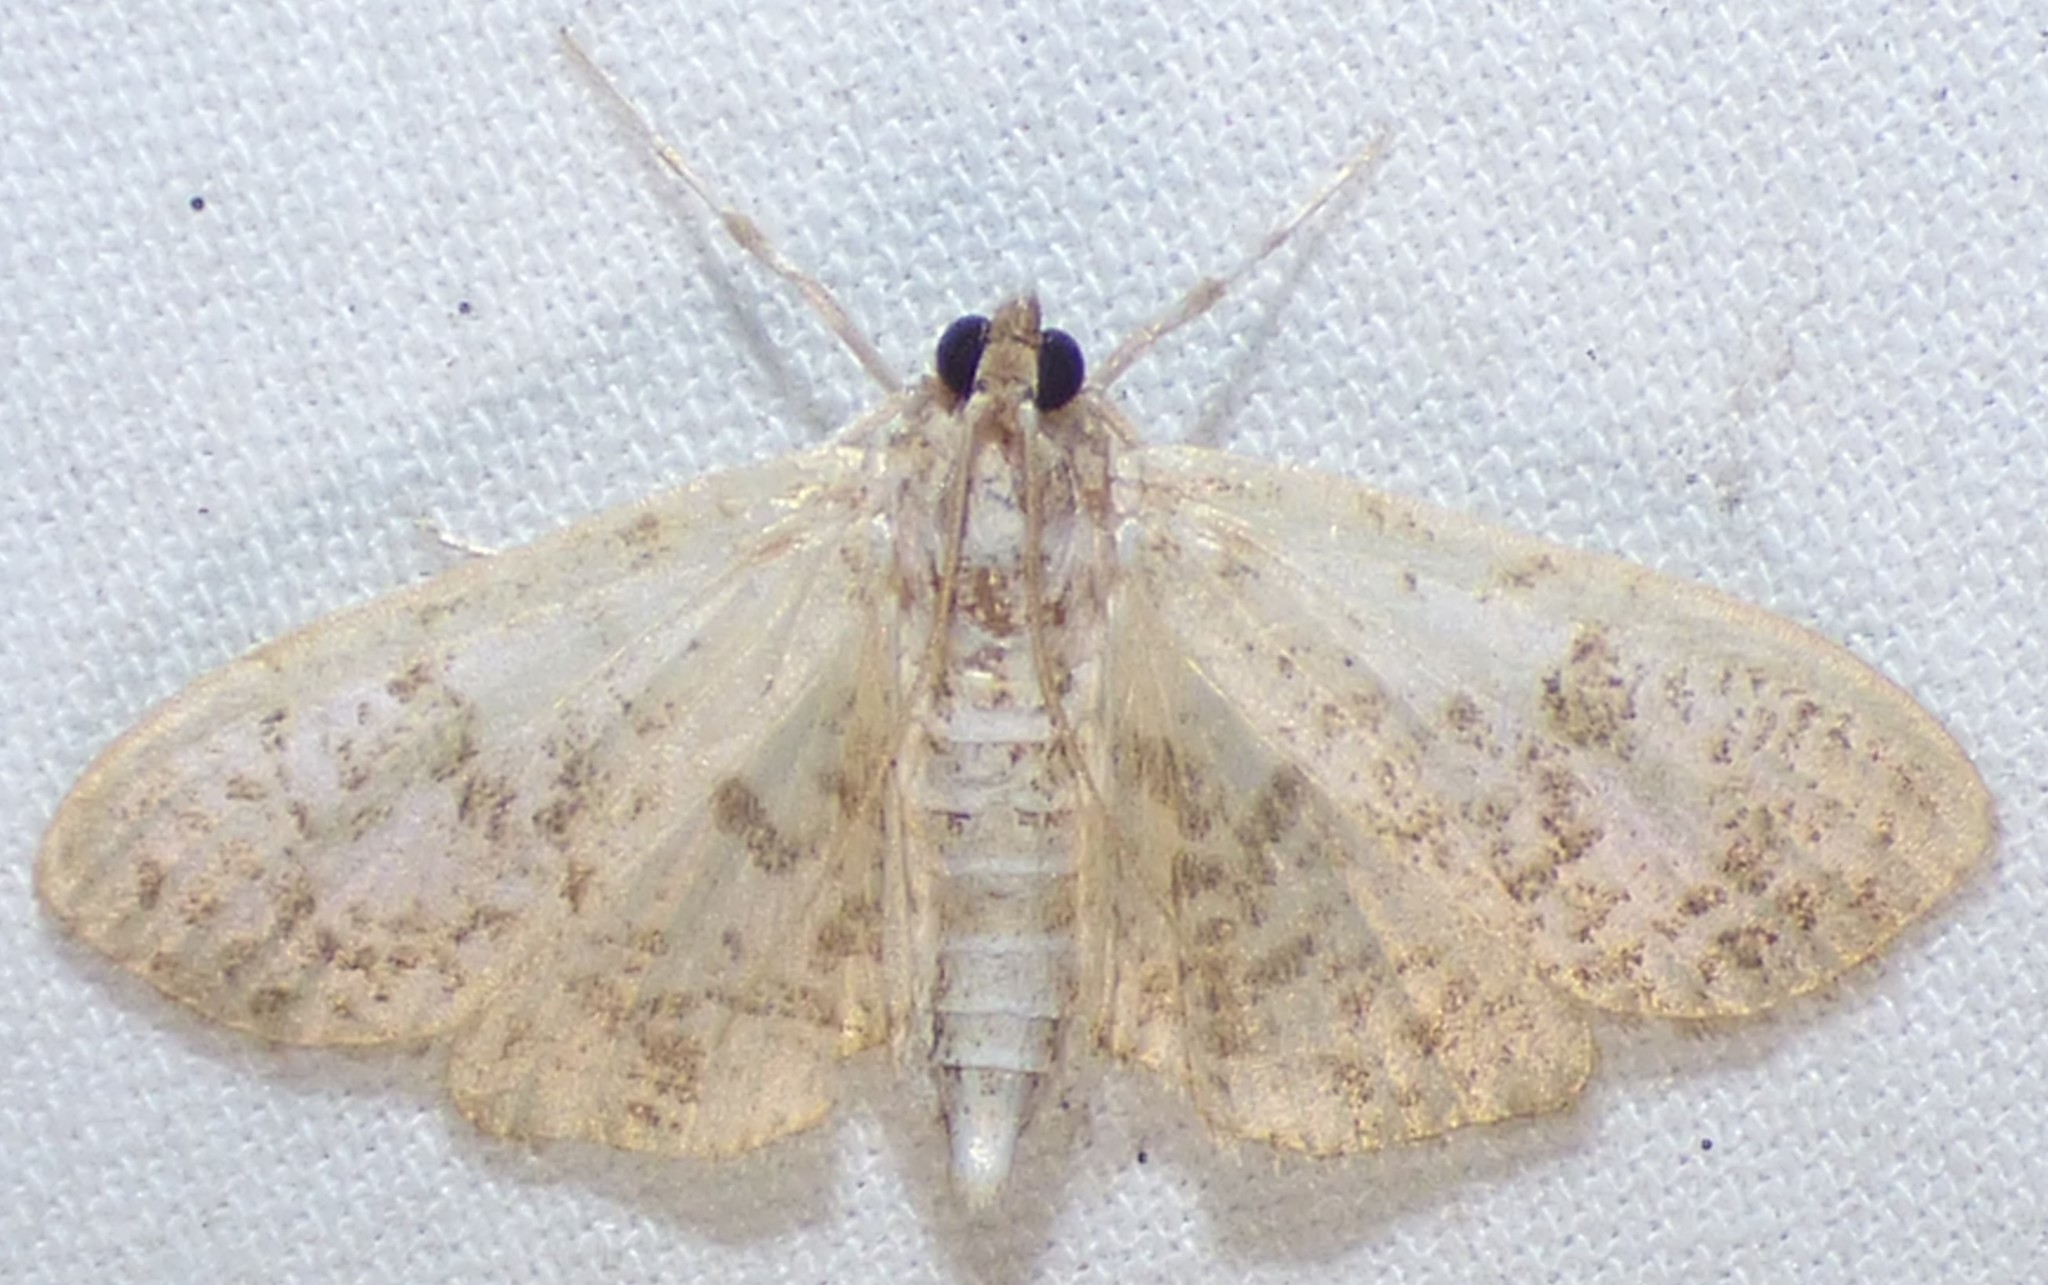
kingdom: Animalia
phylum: Arthropoda
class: Insecta
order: Lepidoptera
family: Crambidae
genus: Palpita
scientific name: Palpita freemanalis
